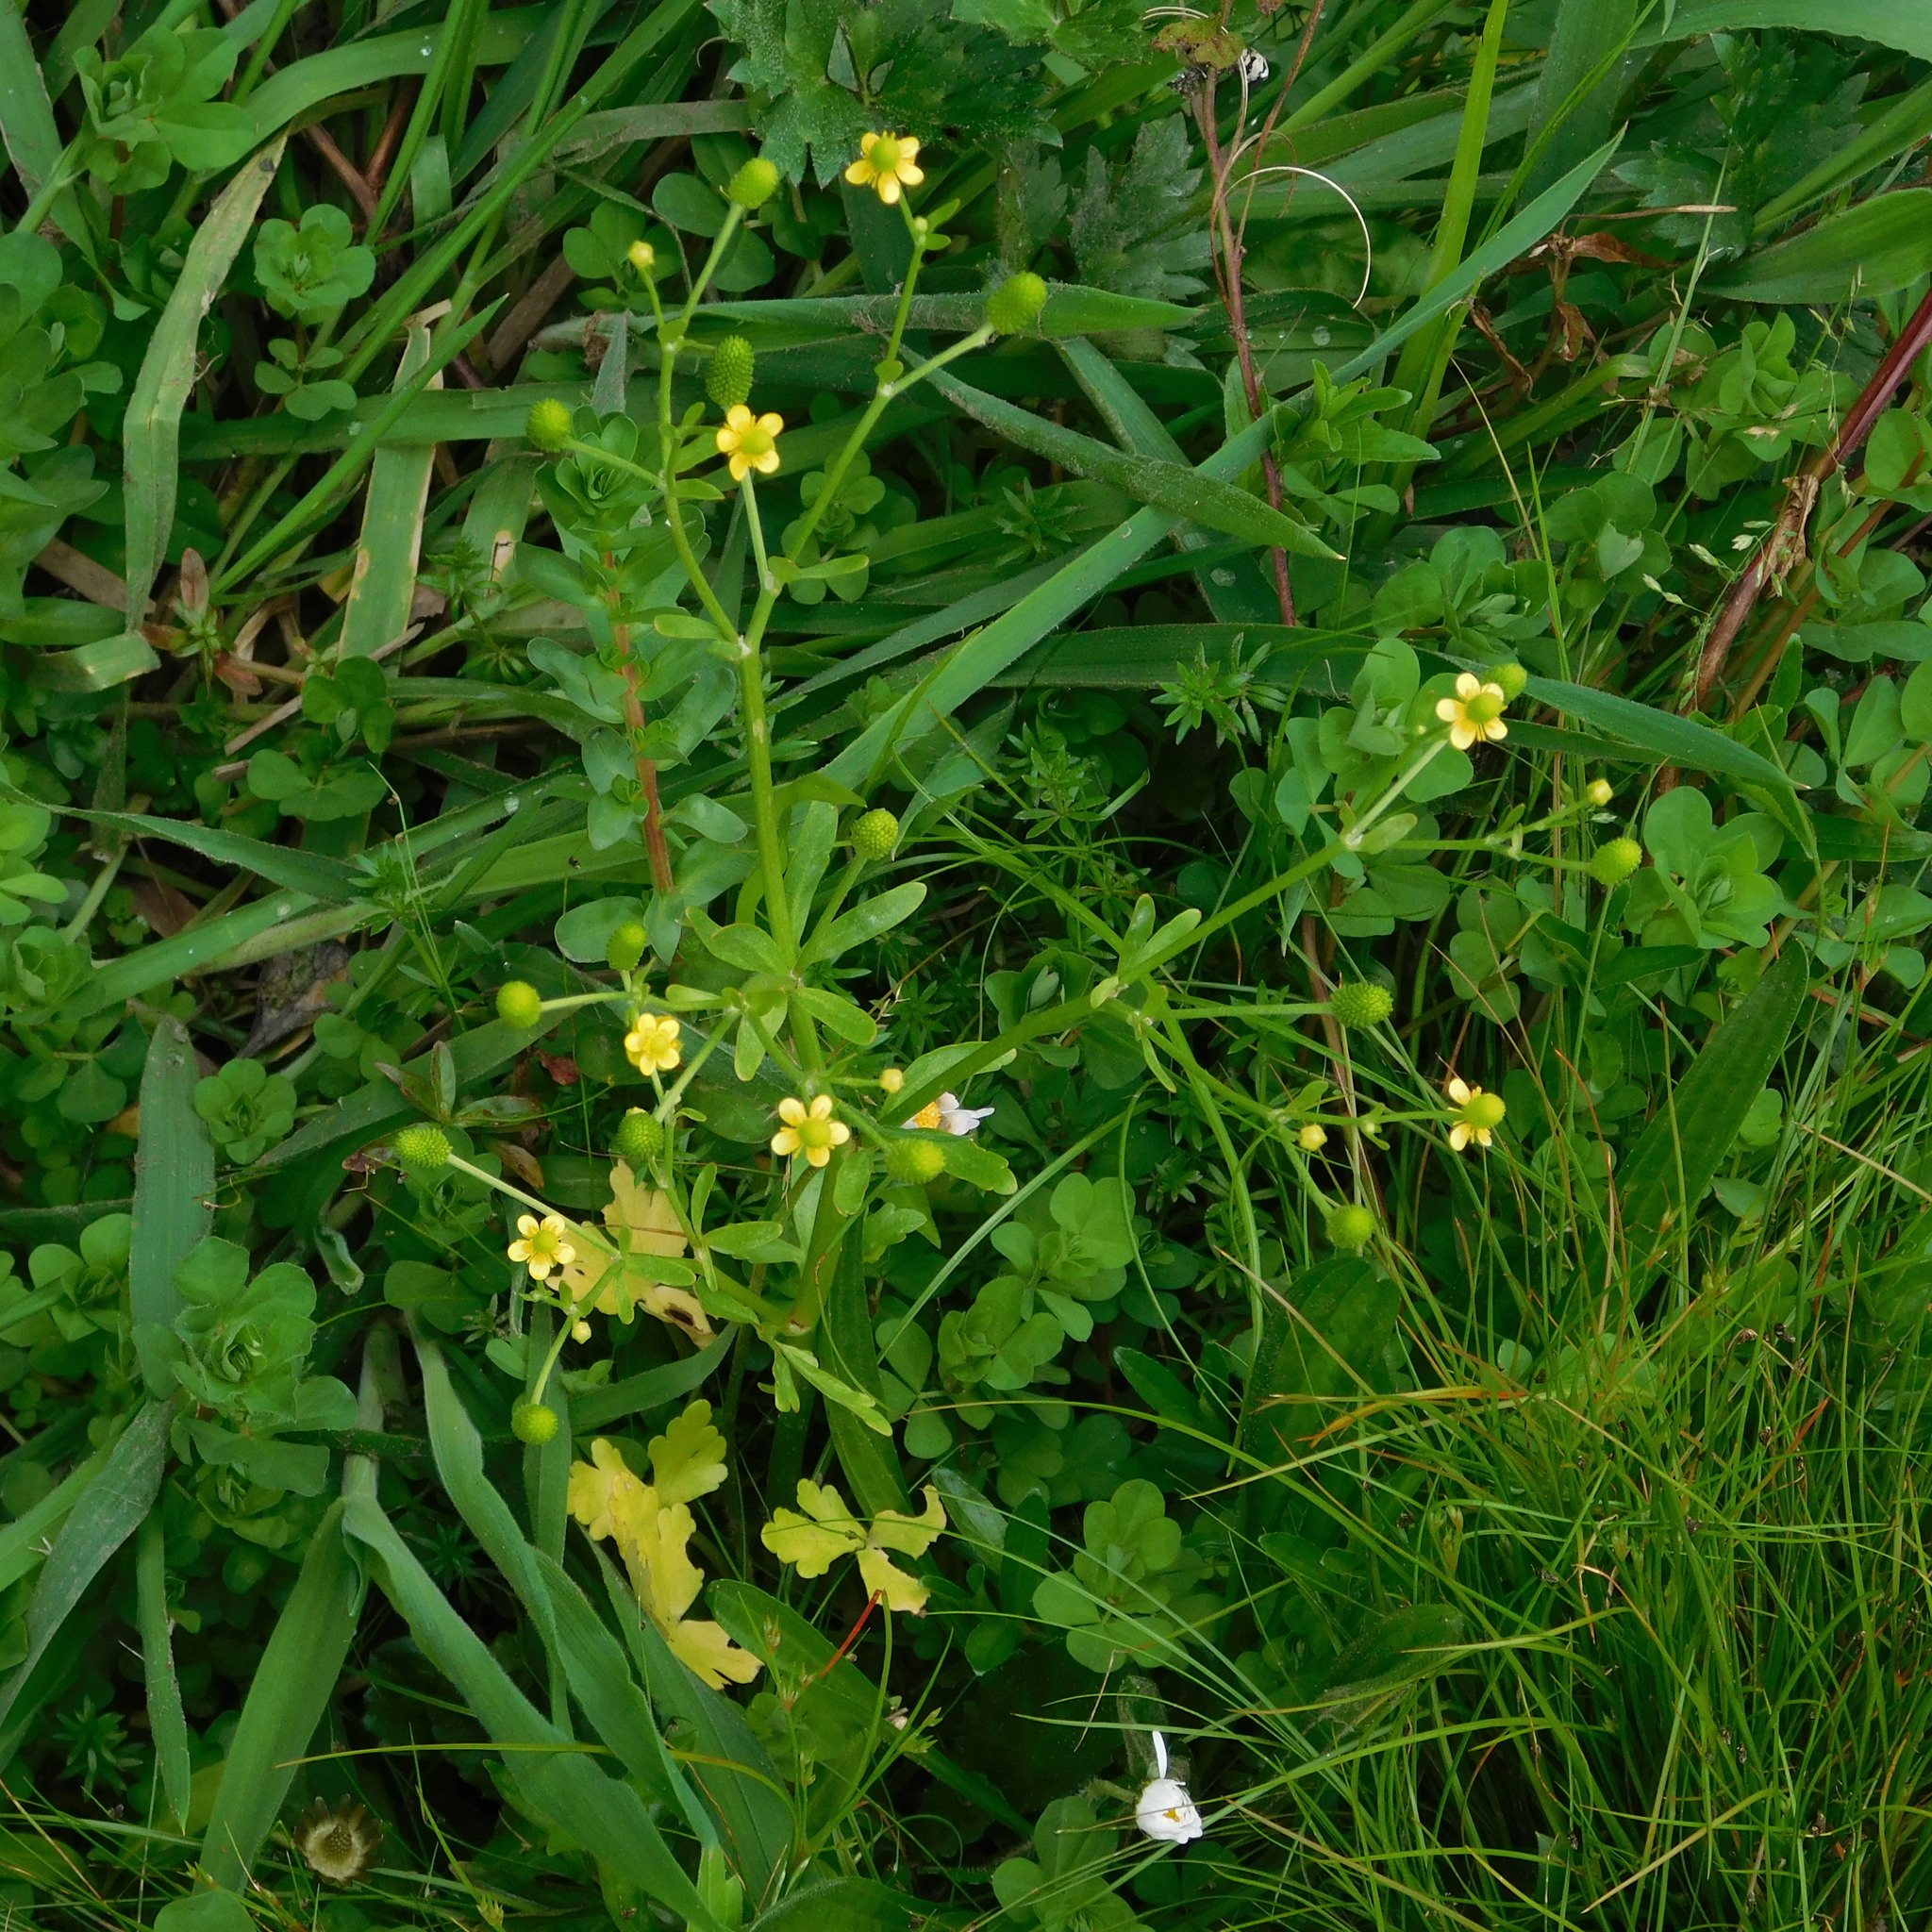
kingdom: Plantae
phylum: Tracheophyta
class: Magnoliopsida
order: Ranunculales
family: Ranunculaceae
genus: Ranunculus
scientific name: Ranunculus sceleratus
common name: Celery-leaved buttercup
